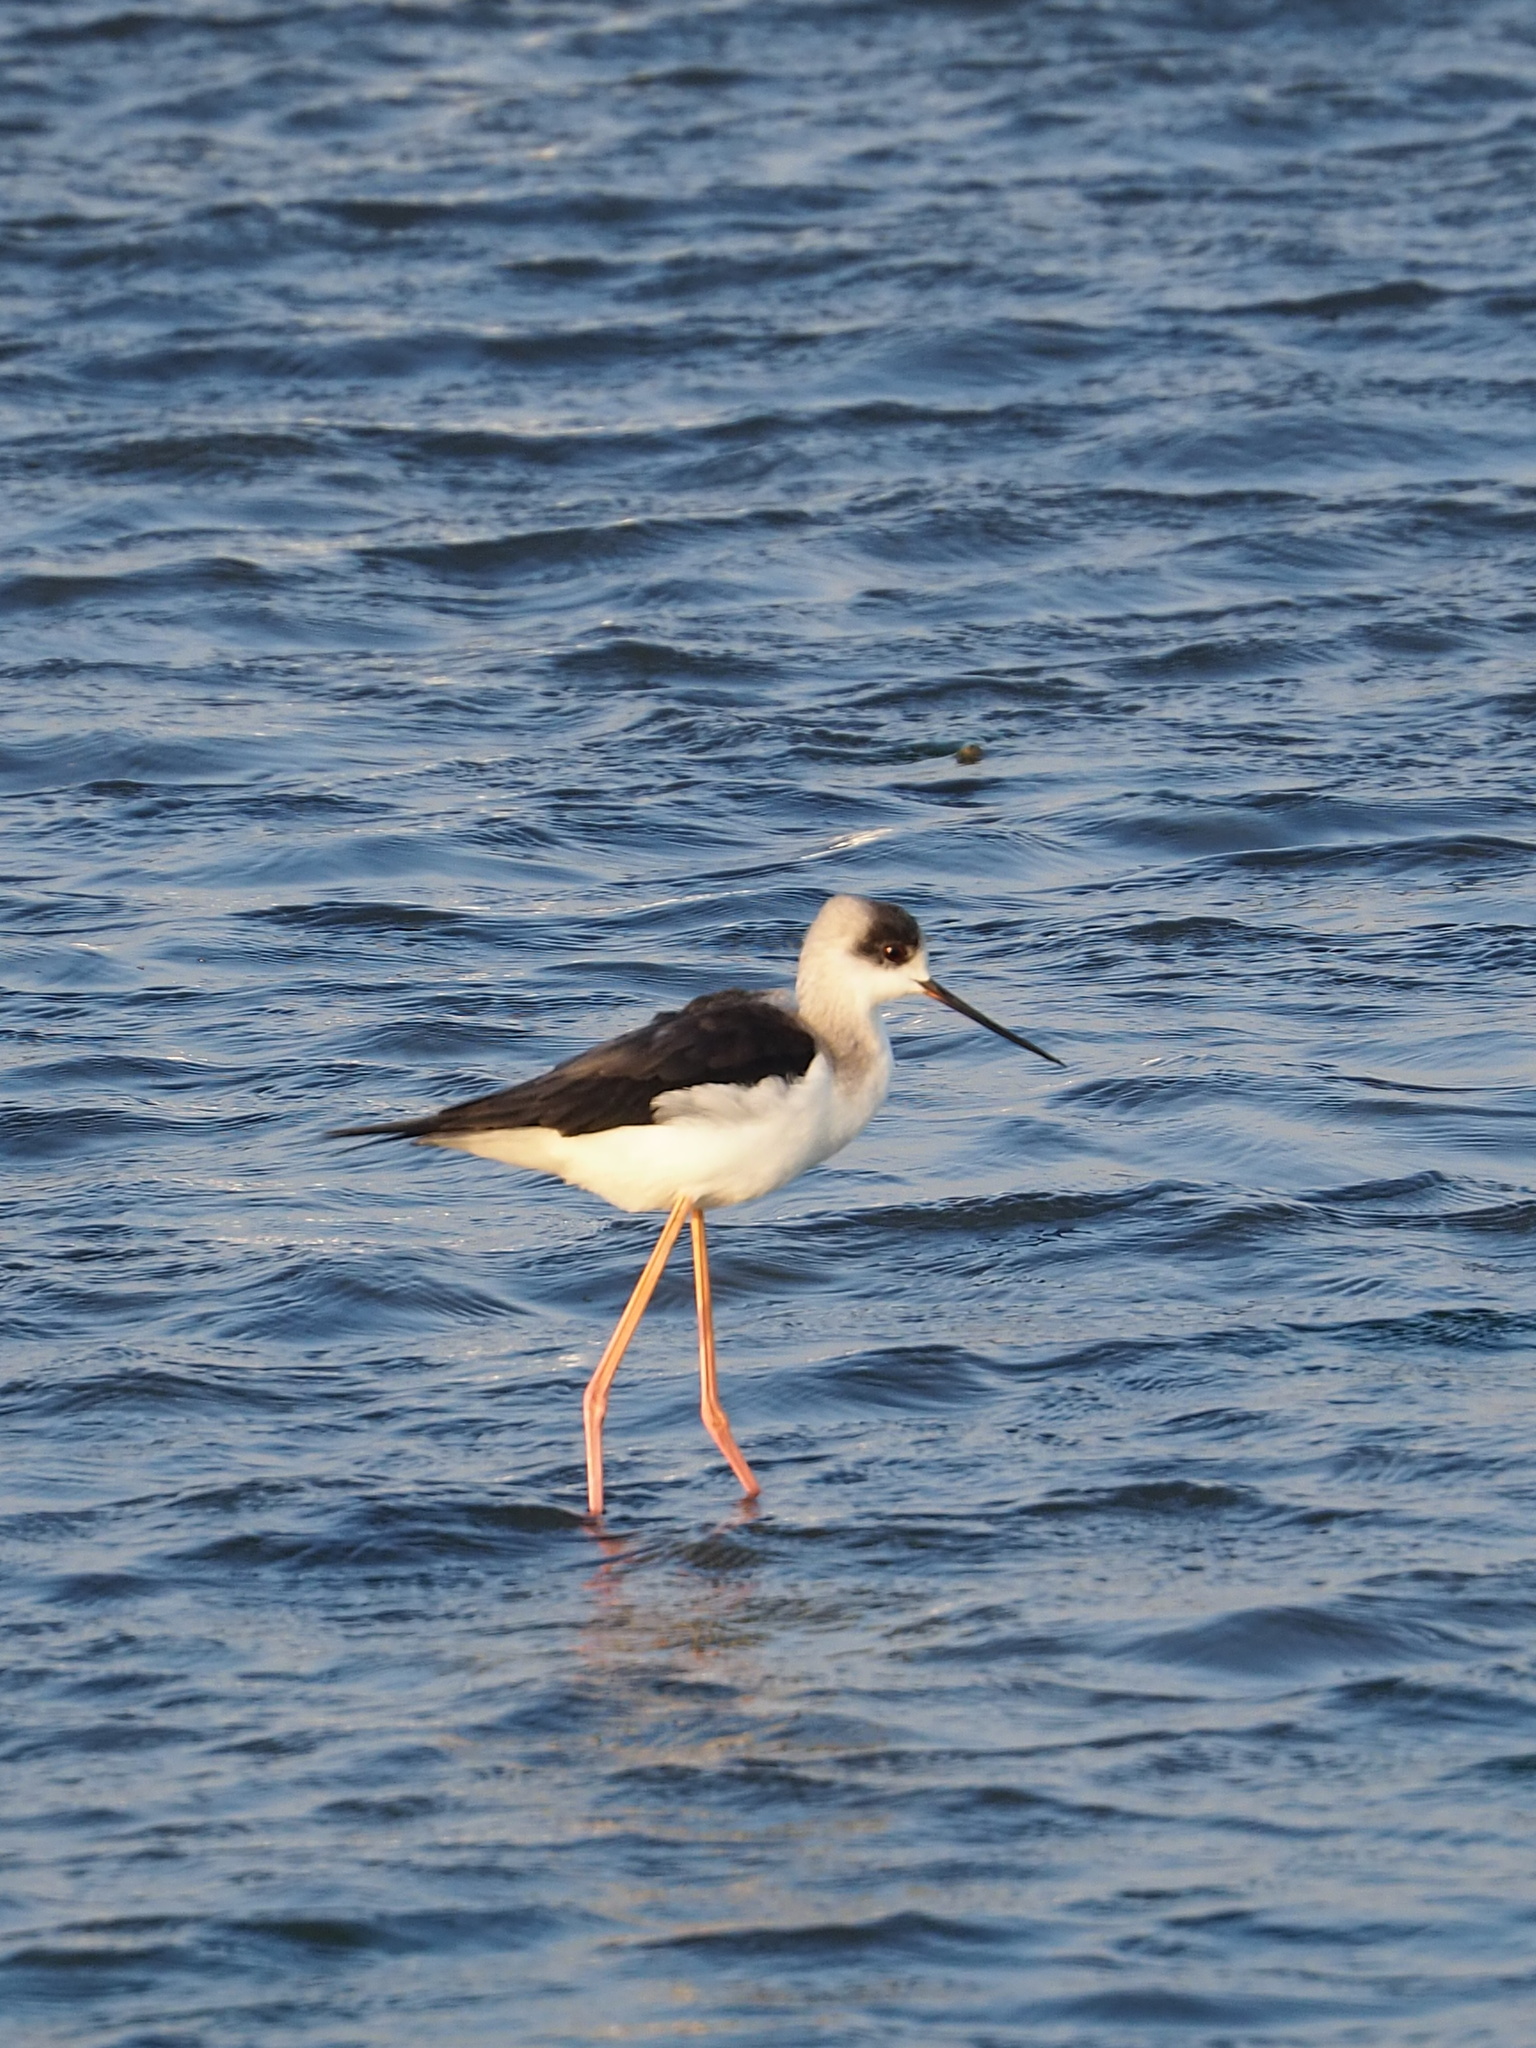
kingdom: Animalia
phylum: Chordata
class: Aves
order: Charadriiformes
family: Recurvirostridae
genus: Himantopus
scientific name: Himantopus himantopus
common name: Black-winged stilt
